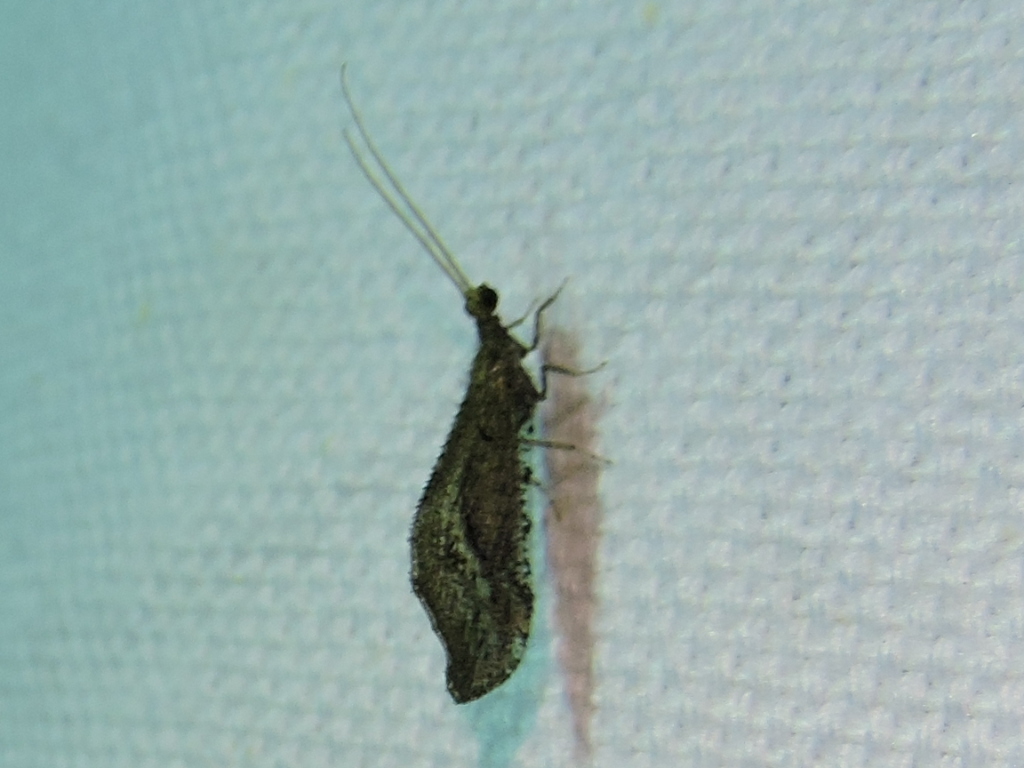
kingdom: Animalia
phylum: Arthropoda
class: Insecta
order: Neuroptera
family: Berothidae
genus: Lomamyia
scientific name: Lomamyia
